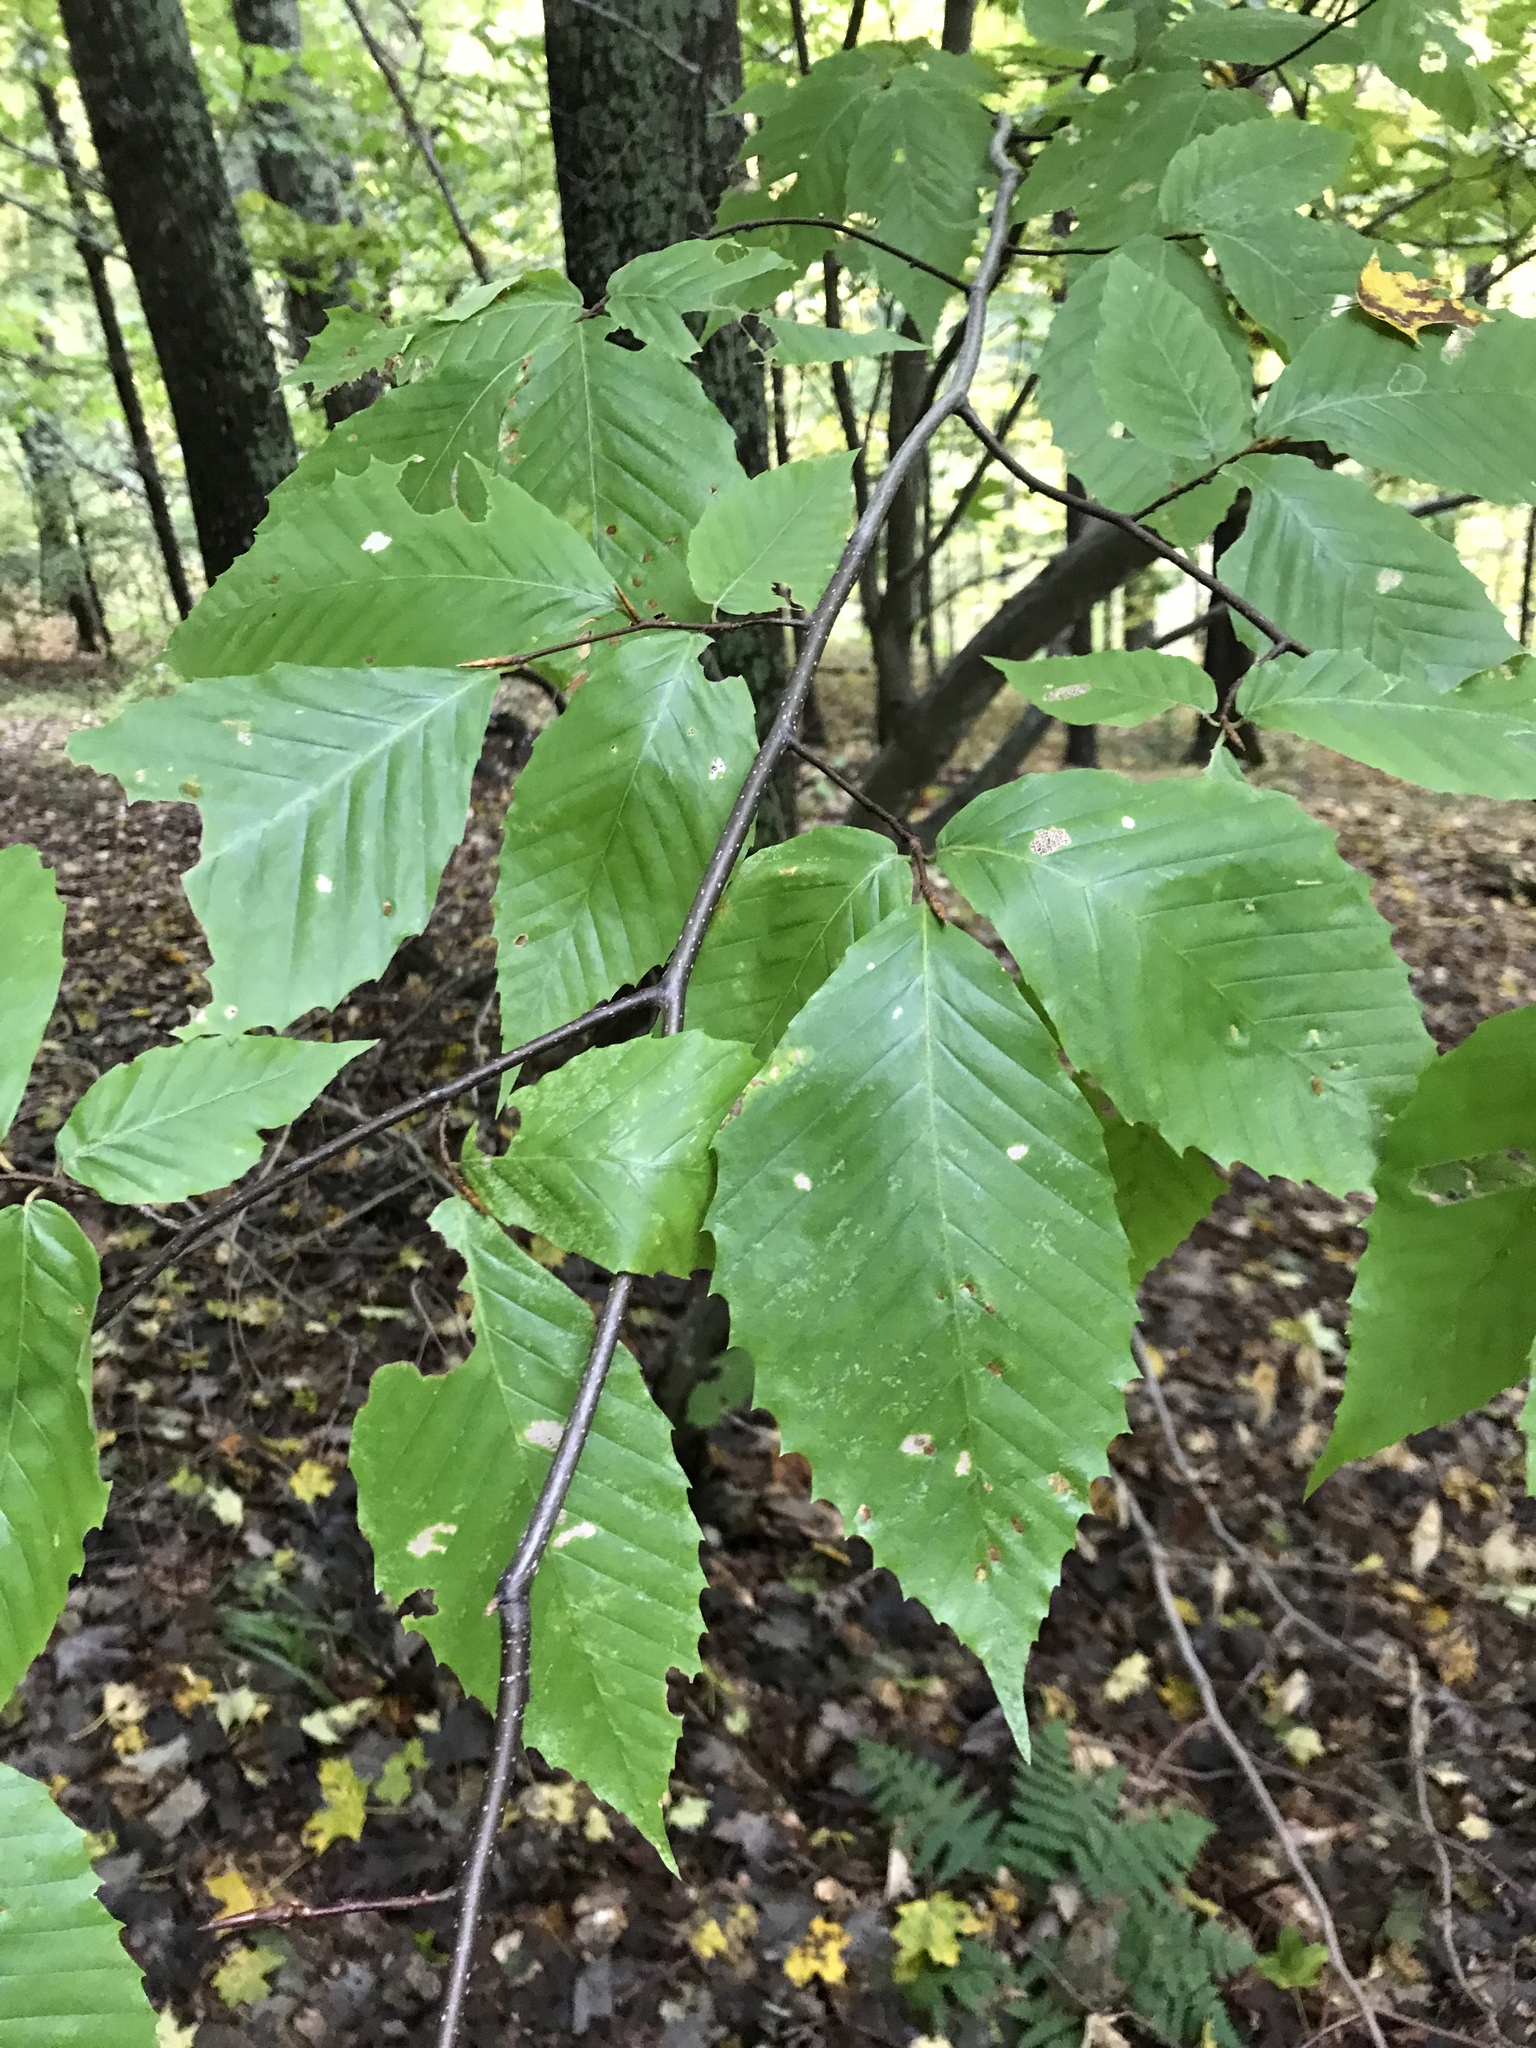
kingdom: Plantae
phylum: Tracheophyta
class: Magnoliopsida
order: Fagales
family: Fagaceae
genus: Fagus
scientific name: Fagus grandifolia
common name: American beech
